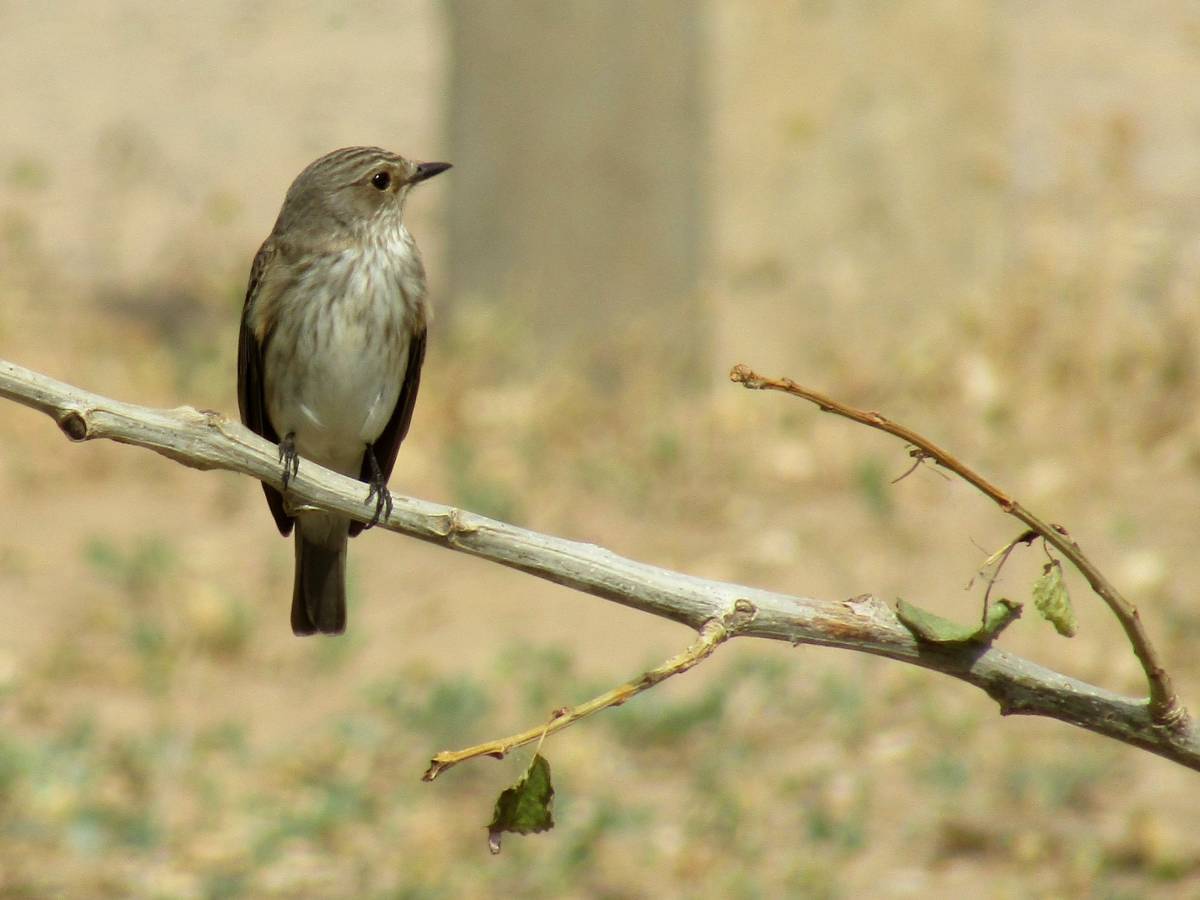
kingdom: Animalia
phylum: Chordata
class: Aves
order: Passeriformes
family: Muscicapidae
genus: Muscicapa
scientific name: Muscicapa striata
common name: Spotted flycatcher
